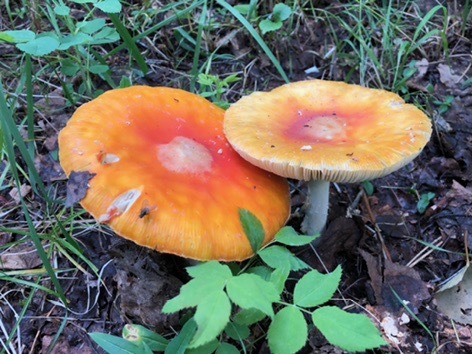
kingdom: Fungi
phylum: Basidiomycota
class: Agaricomycetes
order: Agaricales
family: Amanitaceae
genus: Amanita
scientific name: Amanita muscaria
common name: Fly agaric
